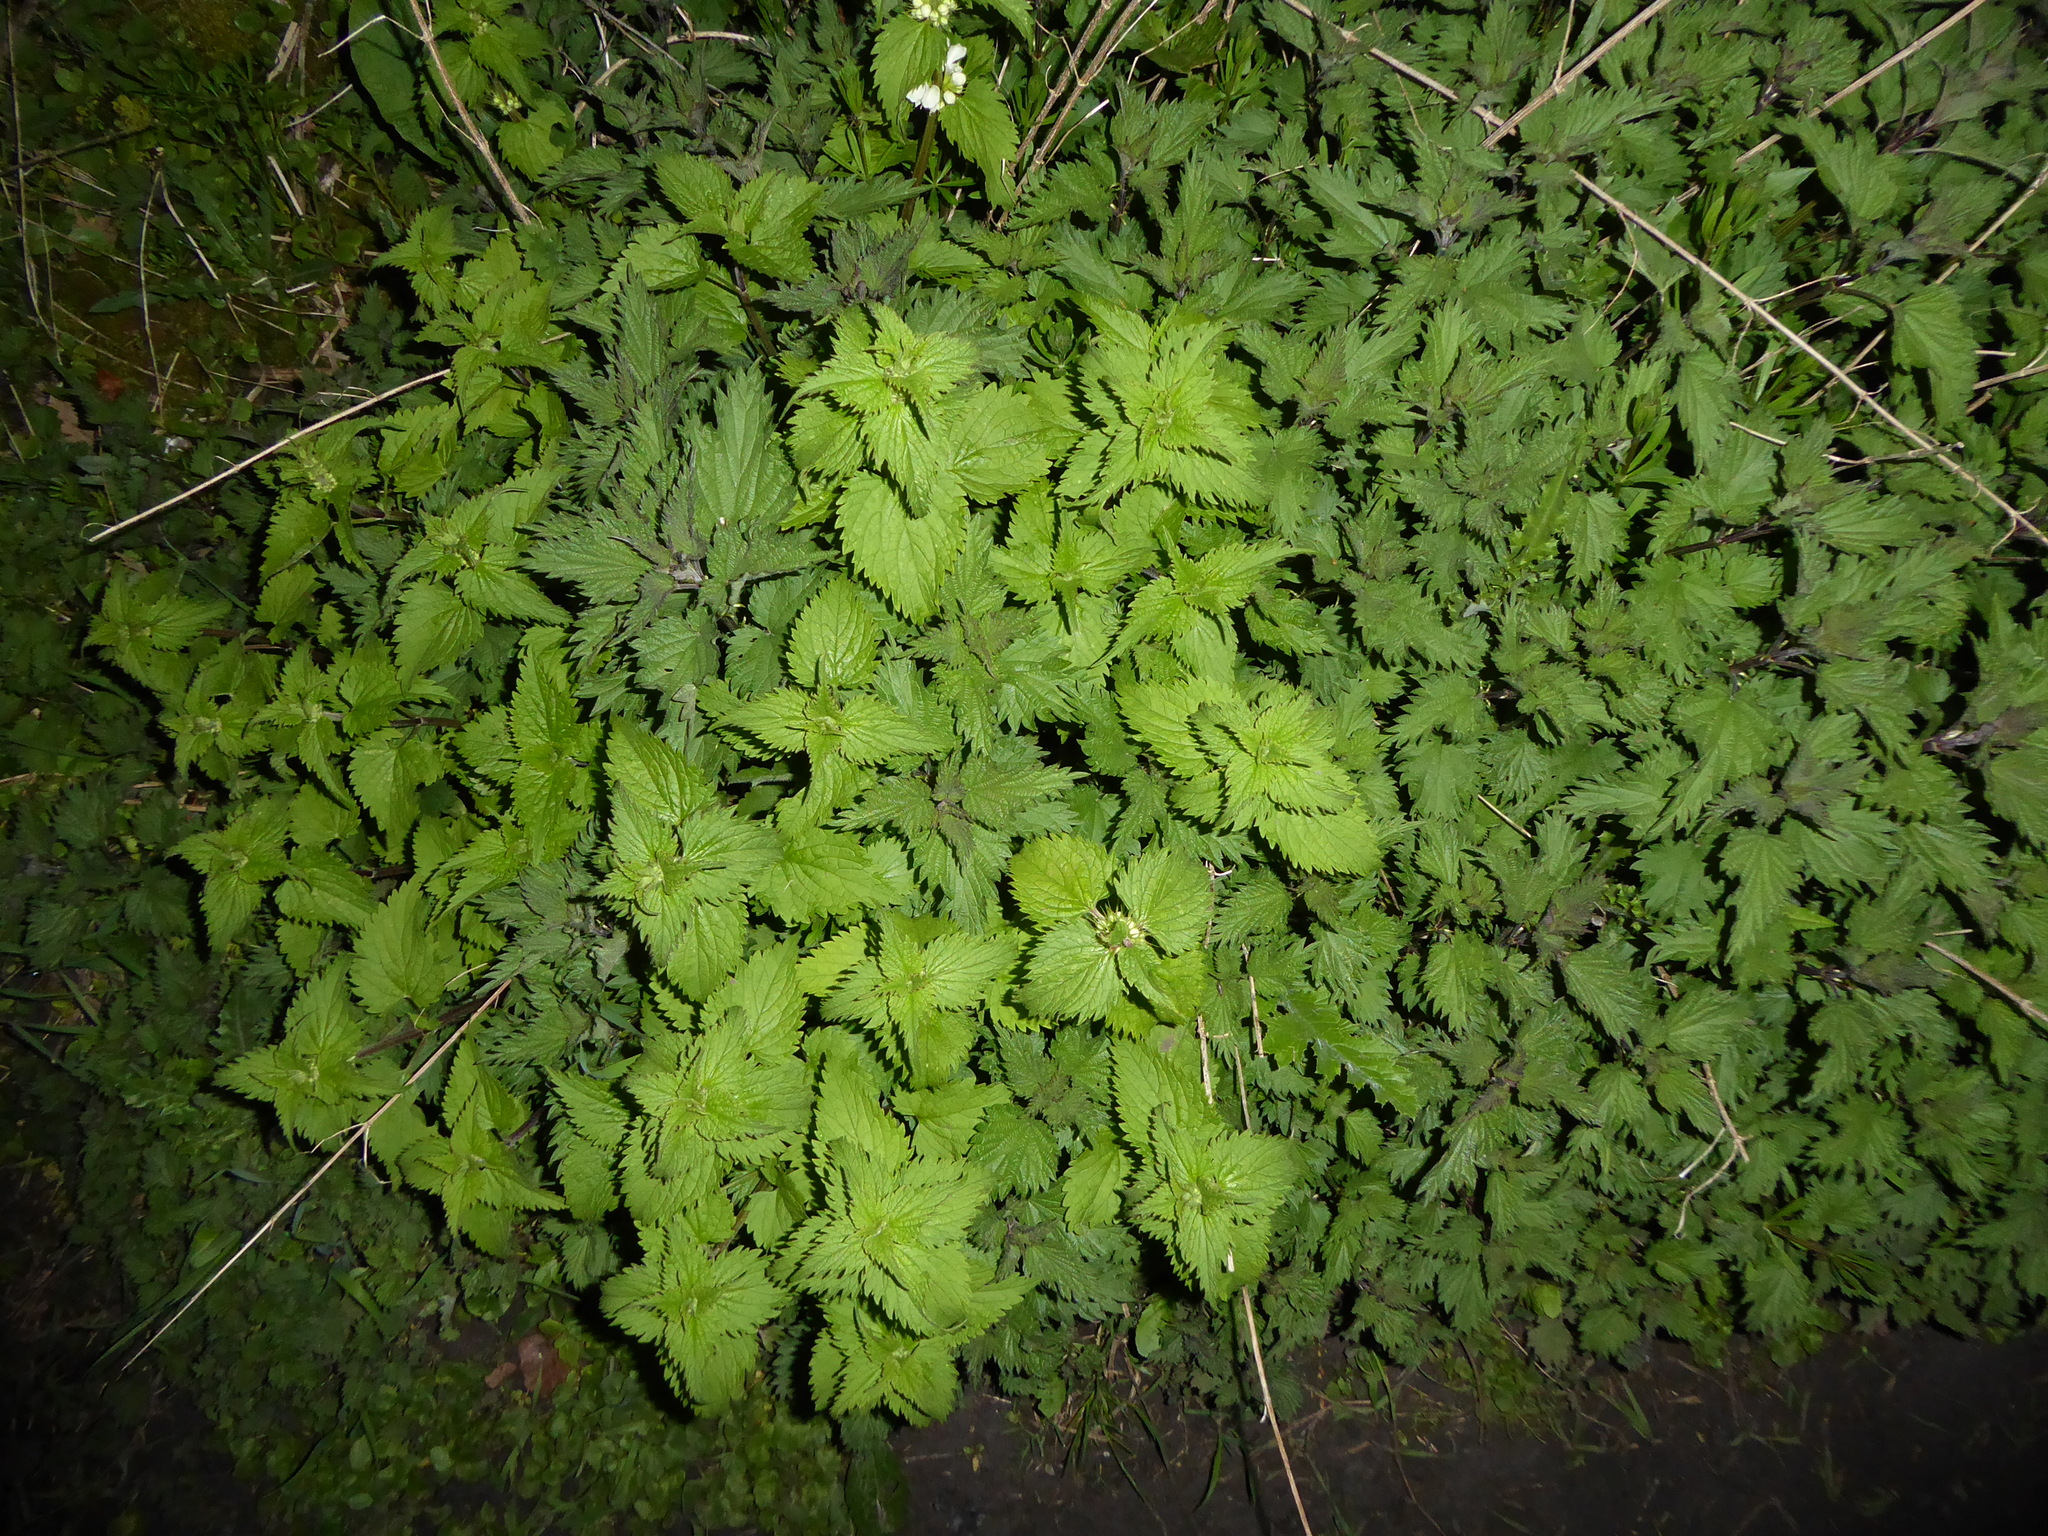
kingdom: Plantae
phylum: Tracheophyta
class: Magnoliopsida
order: Lamiales
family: Lamiaceae
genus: Lamium
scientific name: Lamium album
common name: White dead-nettle
